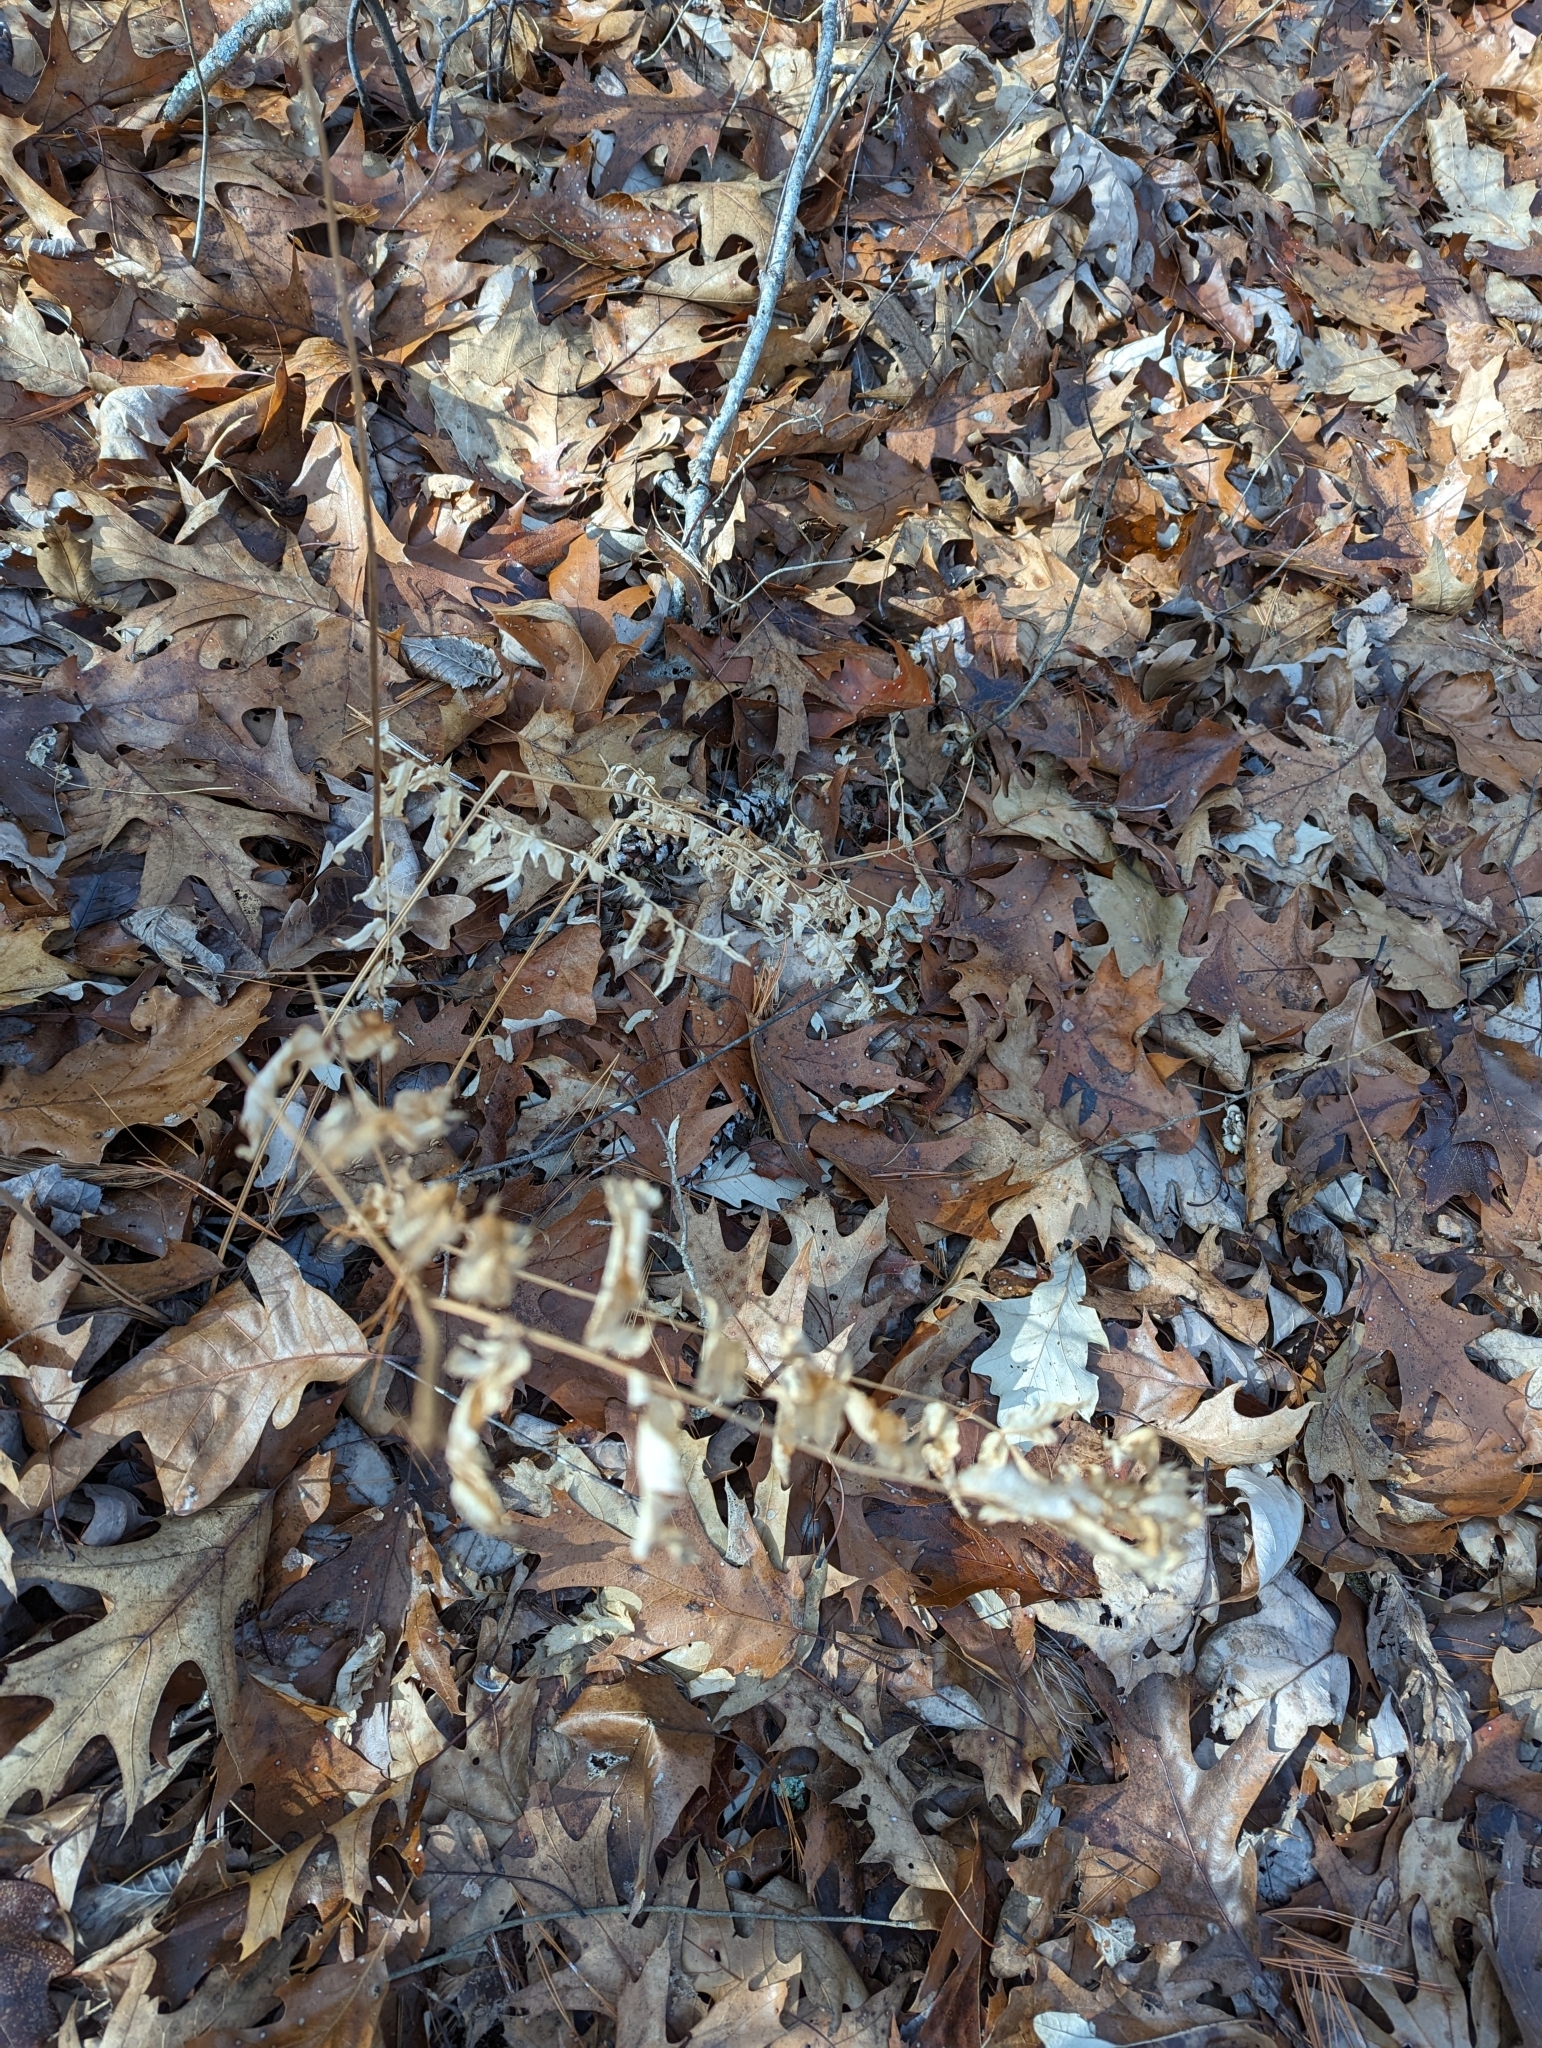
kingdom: Plantae
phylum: Tracheophyta
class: Polypodiopsida
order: Osmundales
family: Osmundaceae
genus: Osmunda
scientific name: Osmunda spectabilis
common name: American royal fern
